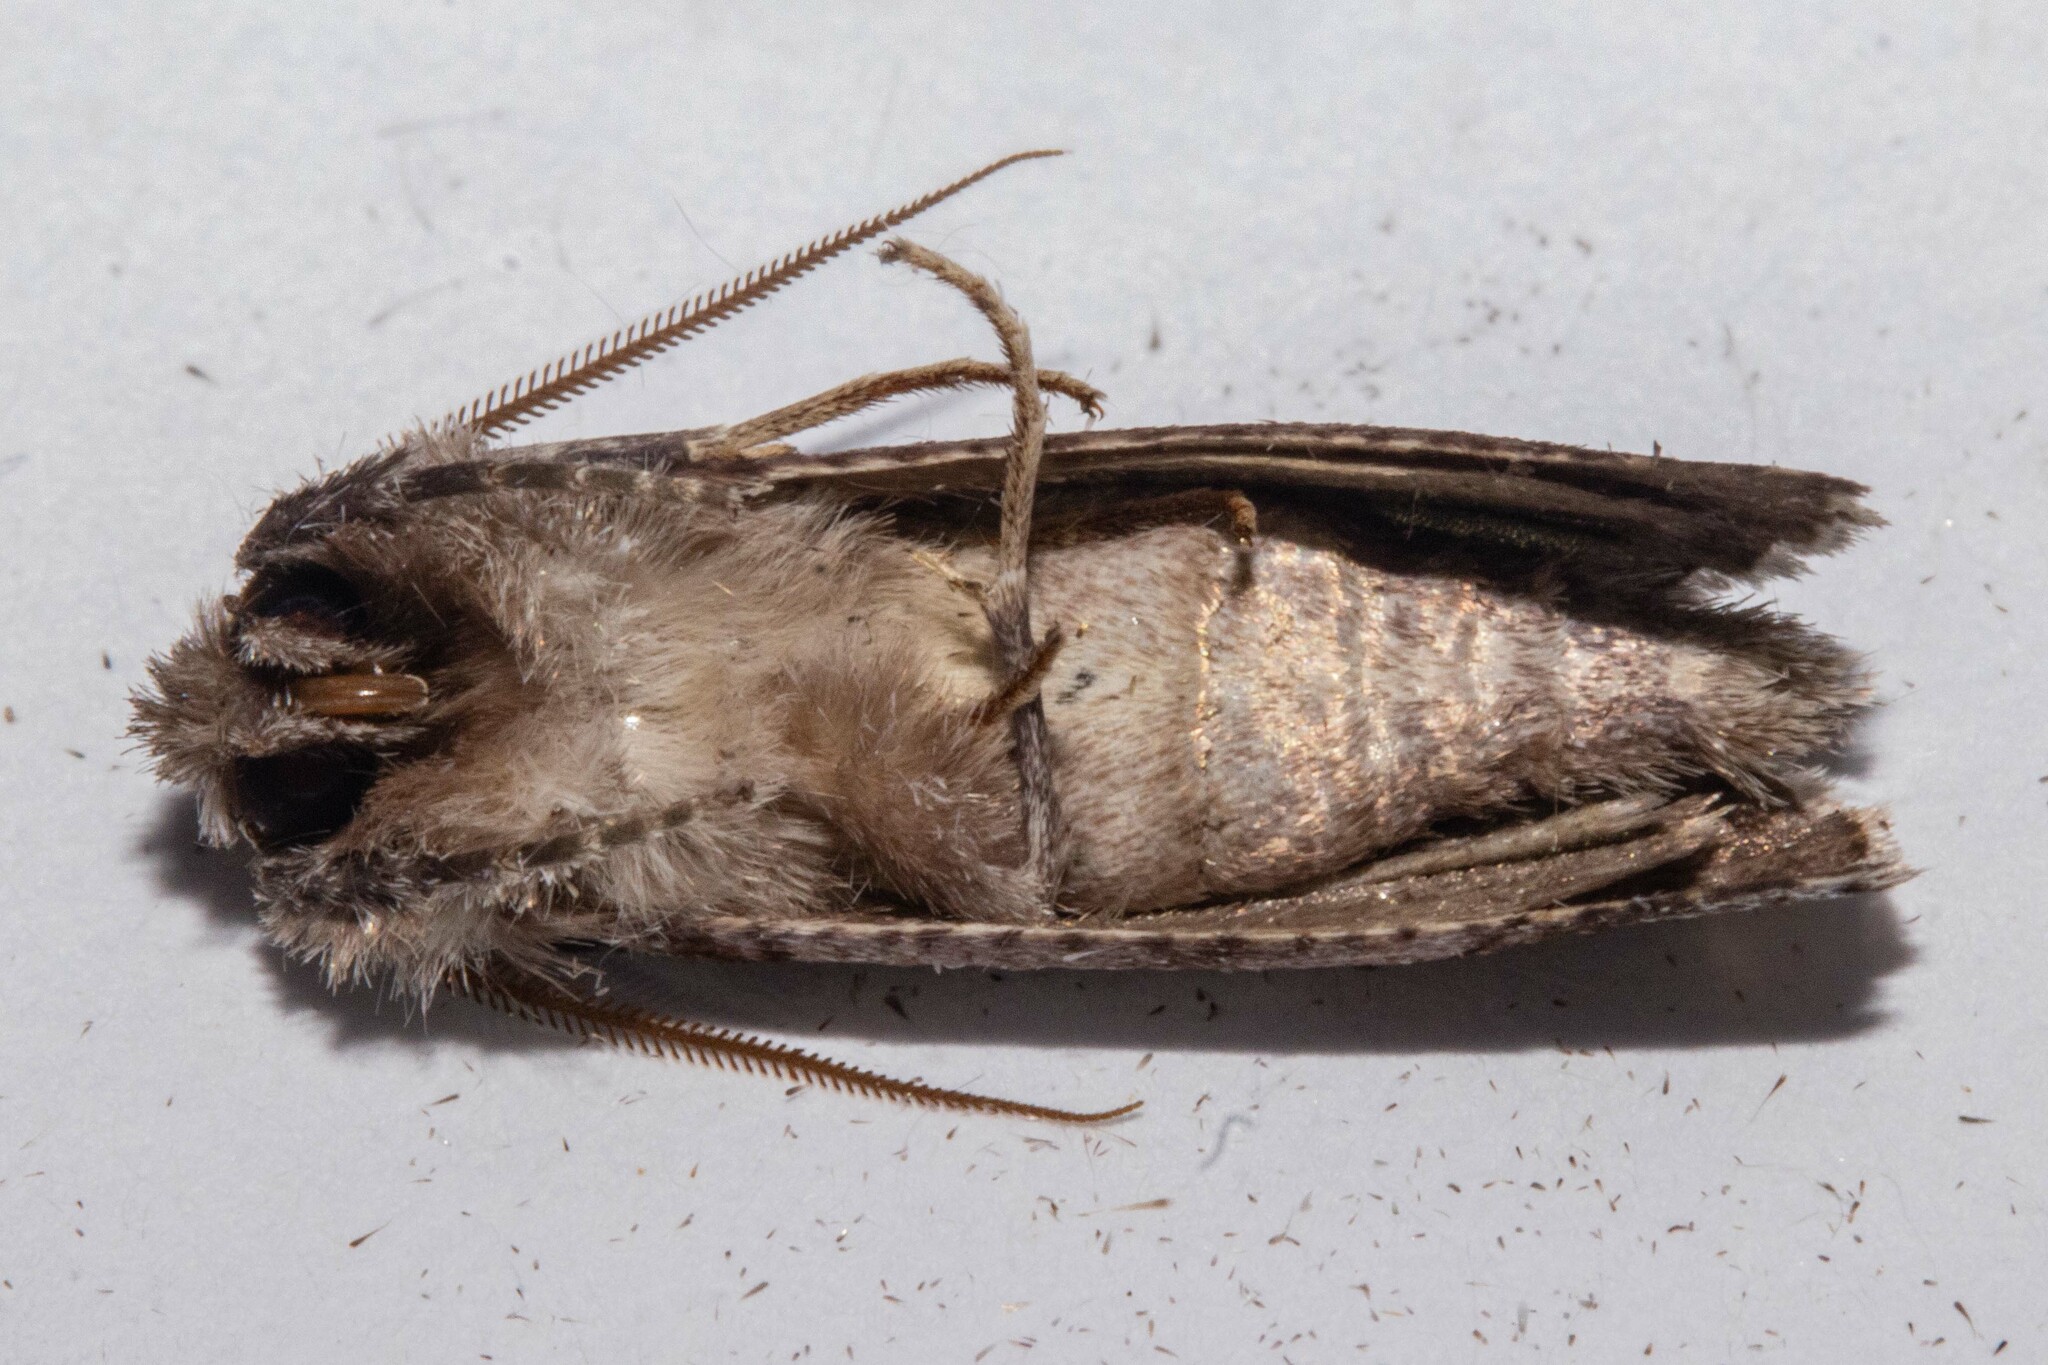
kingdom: Animalia
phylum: Arthropoda
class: Insecta
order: Lepidoptera
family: Geometridae
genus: Declana
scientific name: Declana
